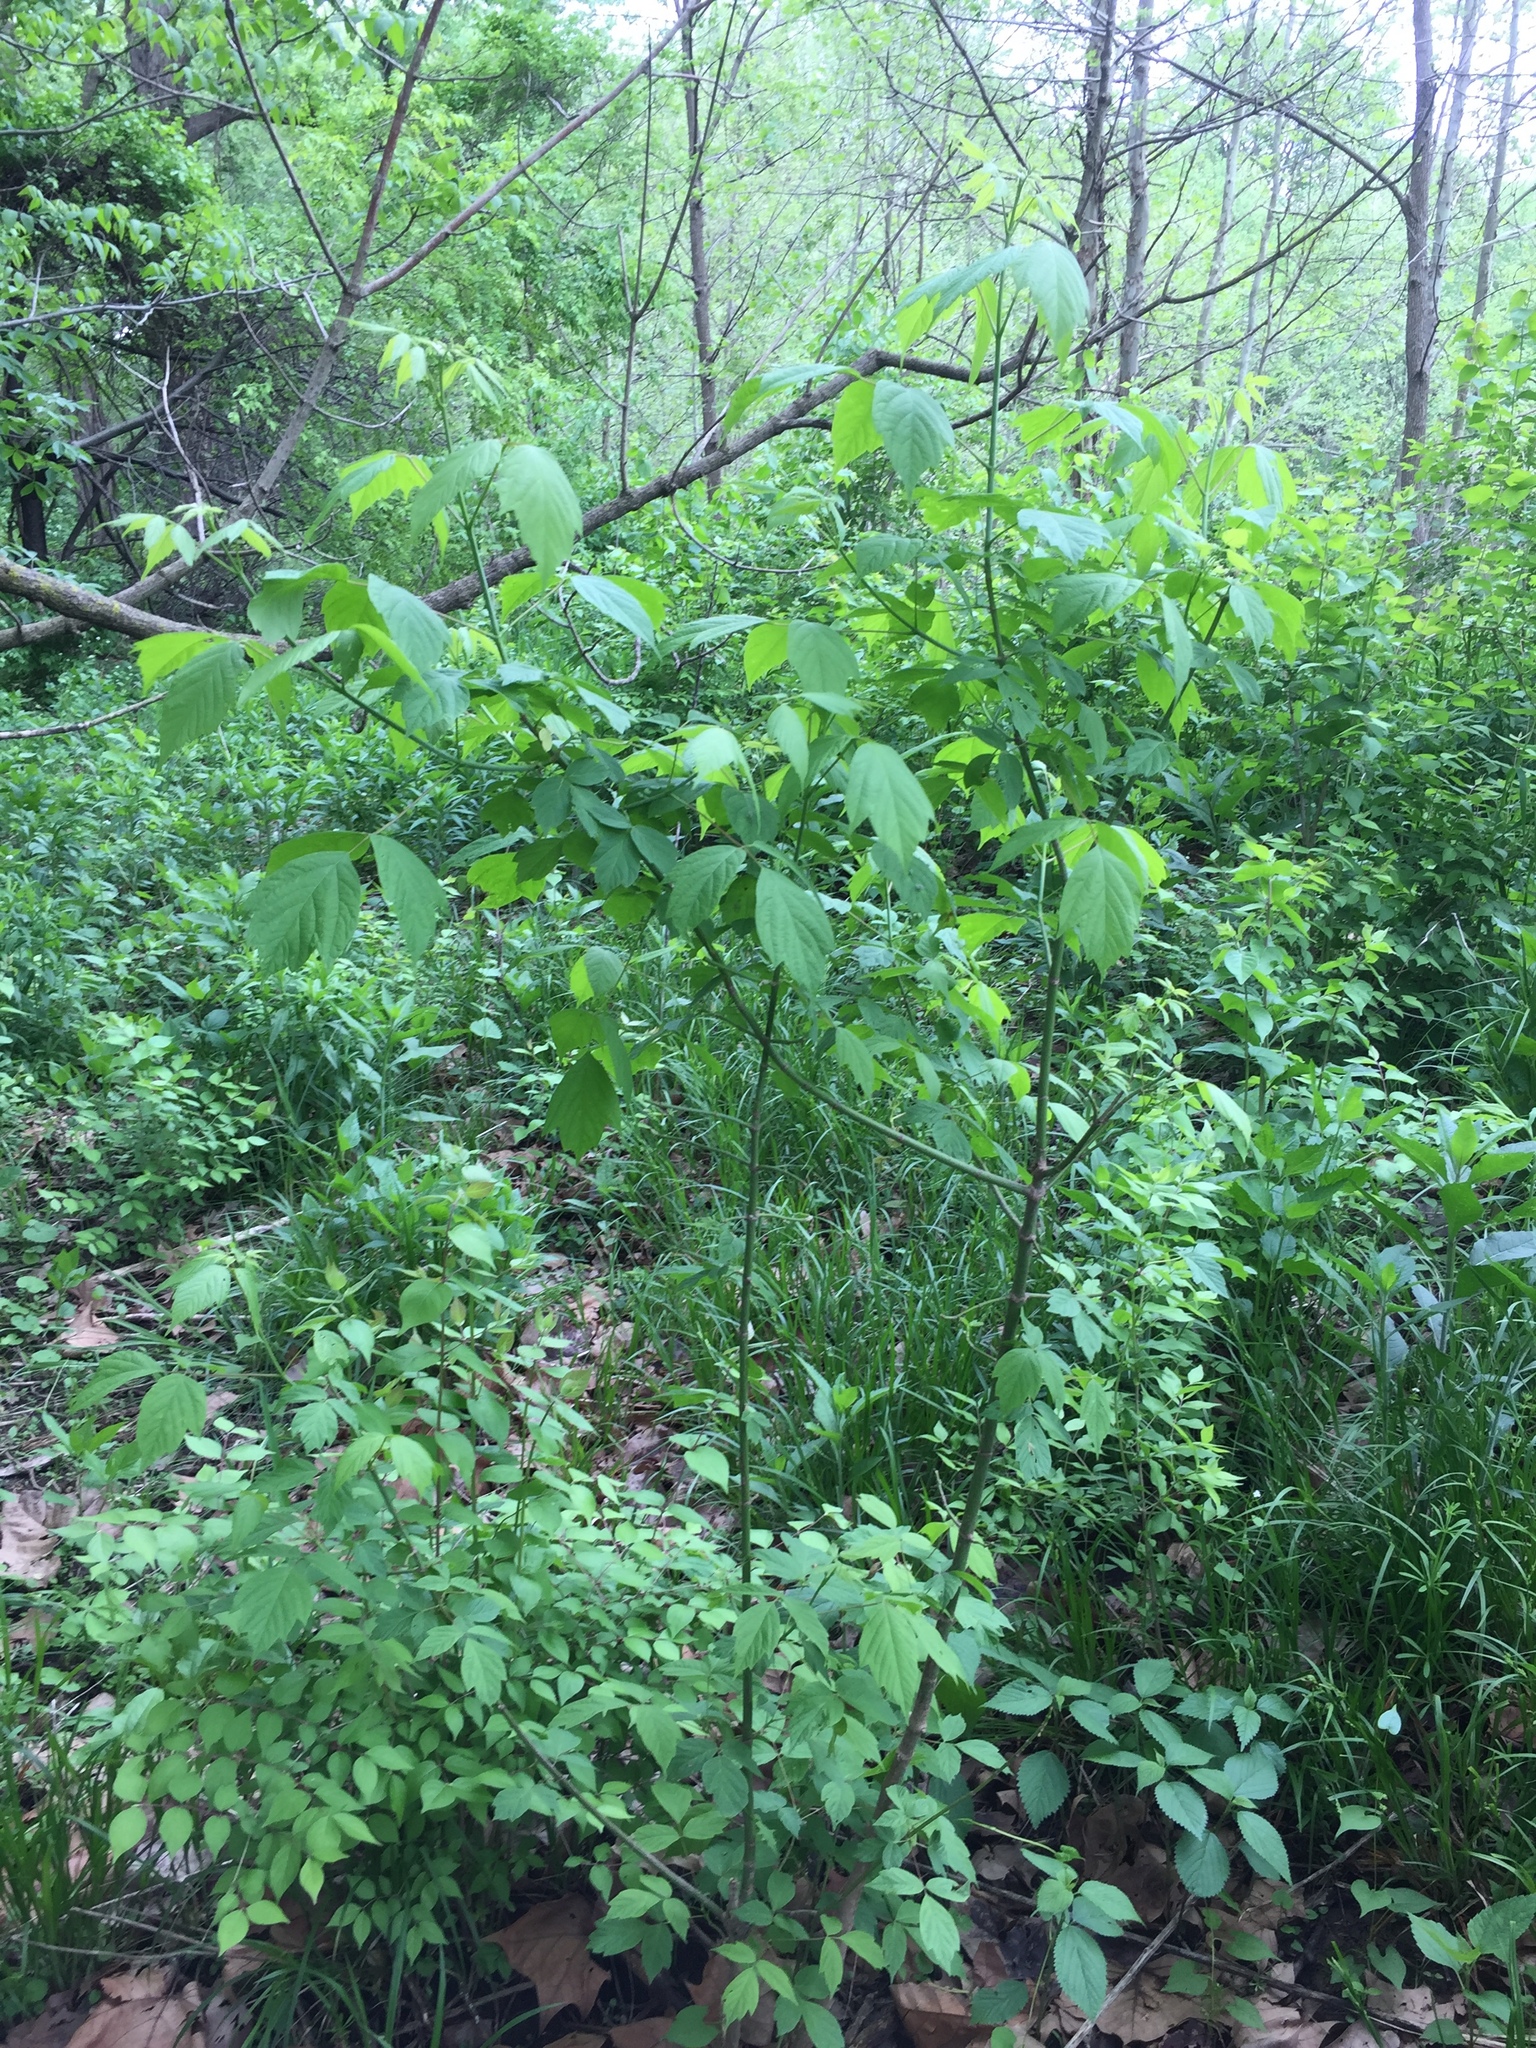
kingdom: Plantae
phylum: Tracheophyta
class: Magnoliopsida
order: Sapindales
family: Sapindaceae
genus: Acer
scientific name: Acer negundo
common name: Ashleaf maple
